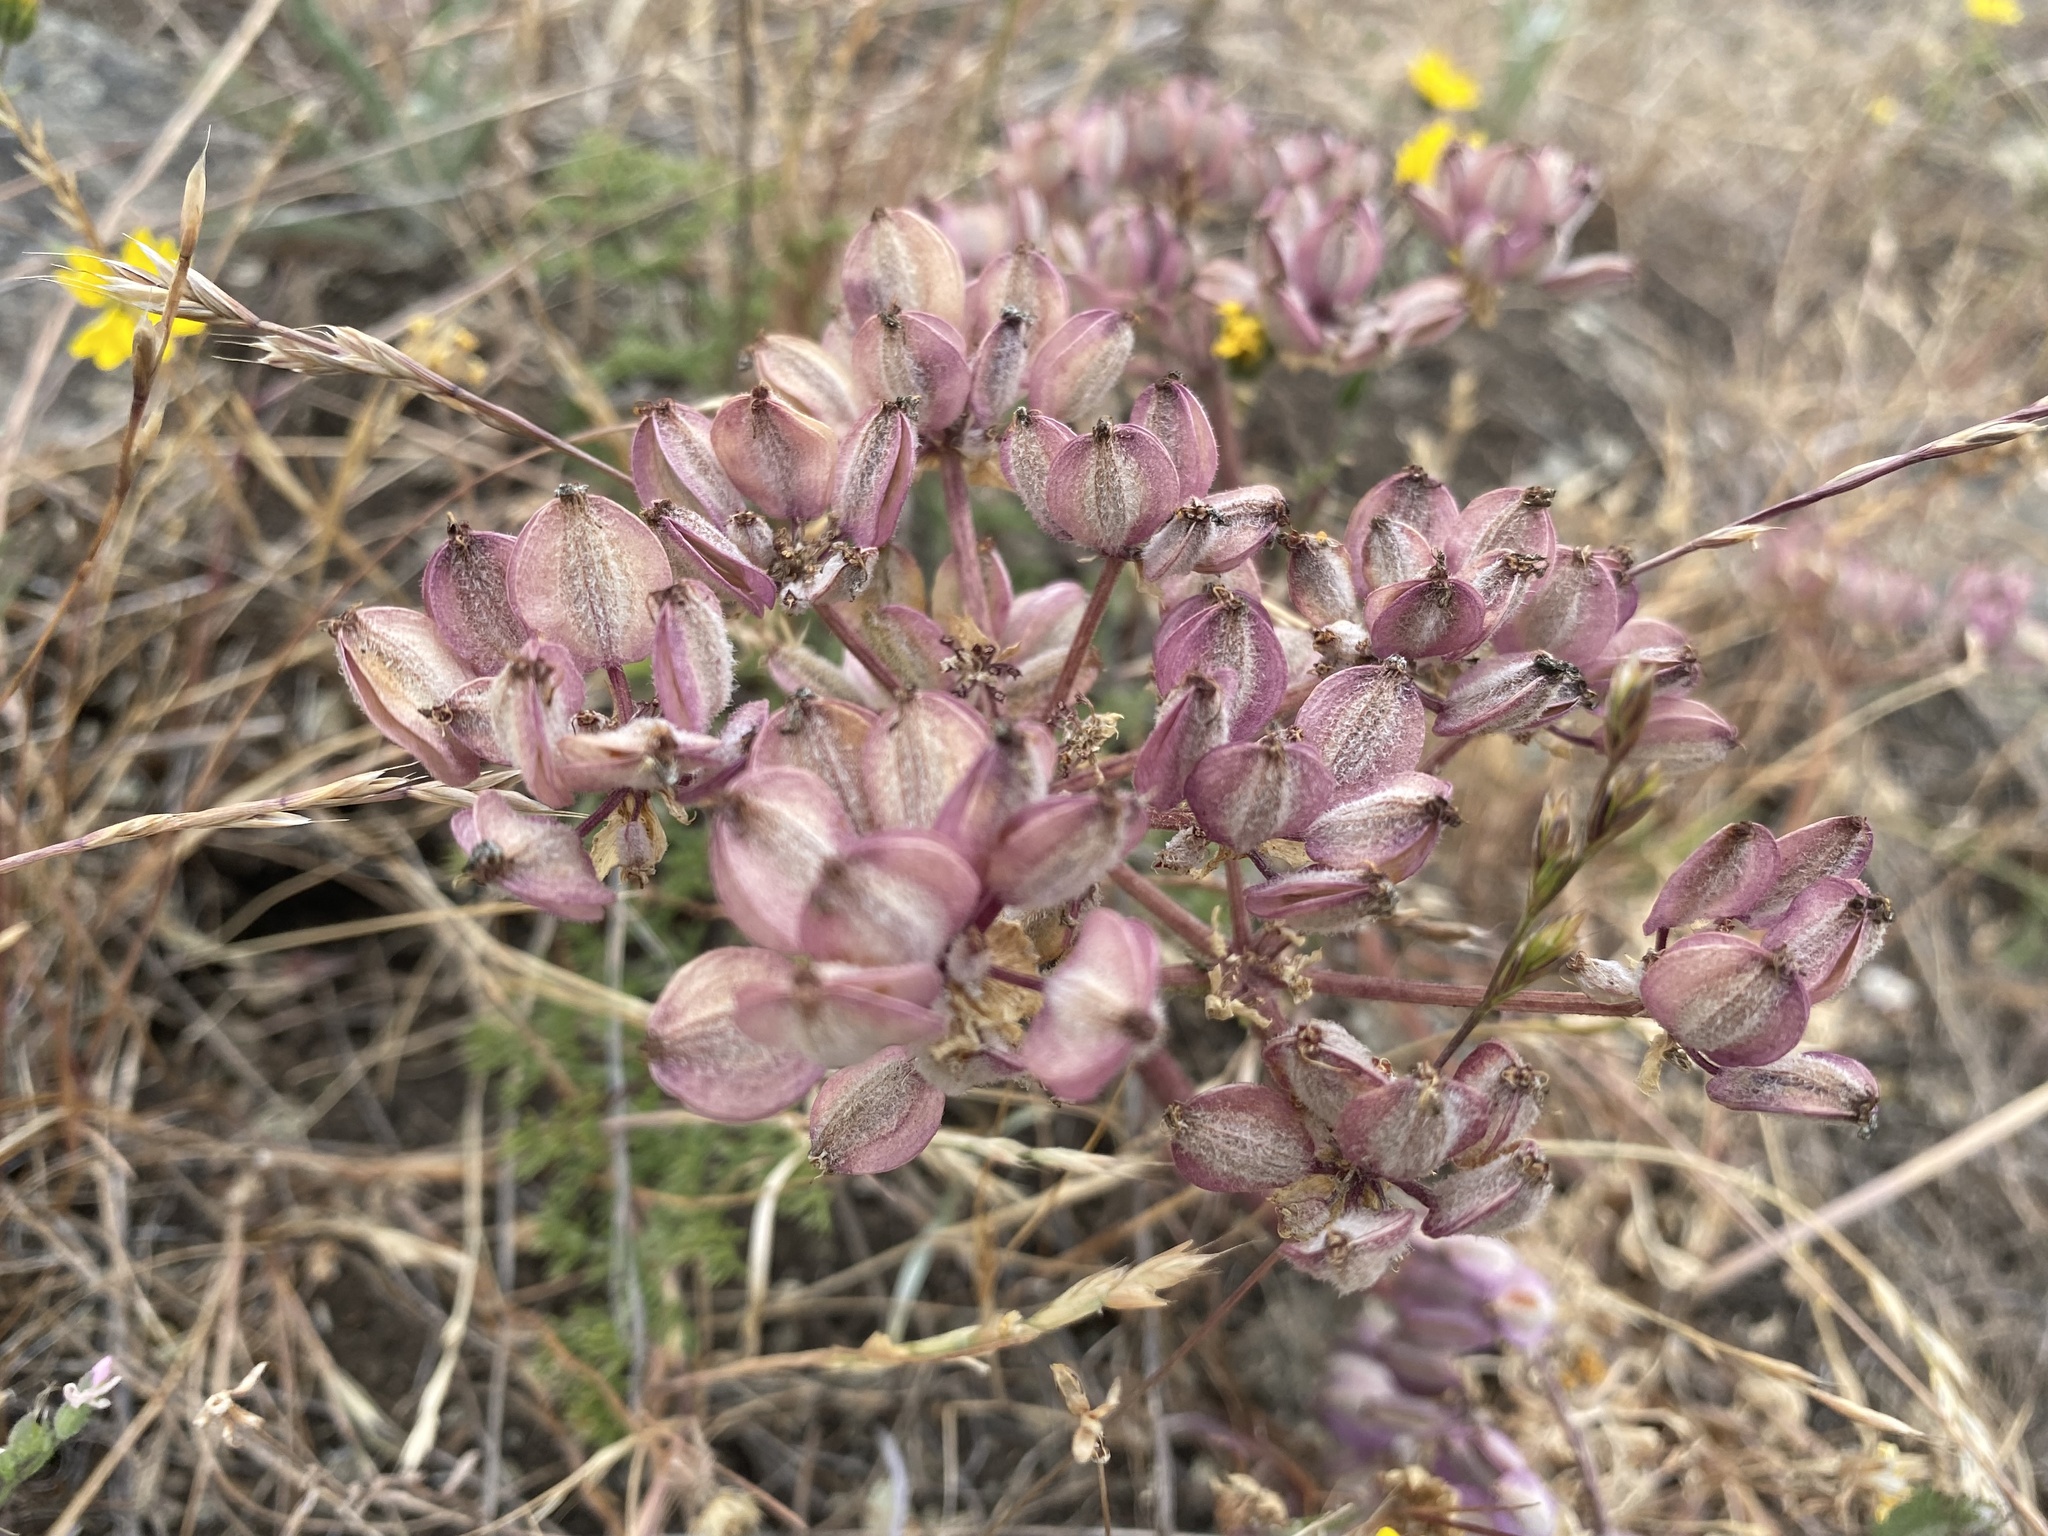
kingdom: Plantae
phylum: Tracheophyta
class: Magnoliopsida
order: Apiales
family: Apiaceae
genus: Lomatium
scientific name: Lomatium dasycarpum
